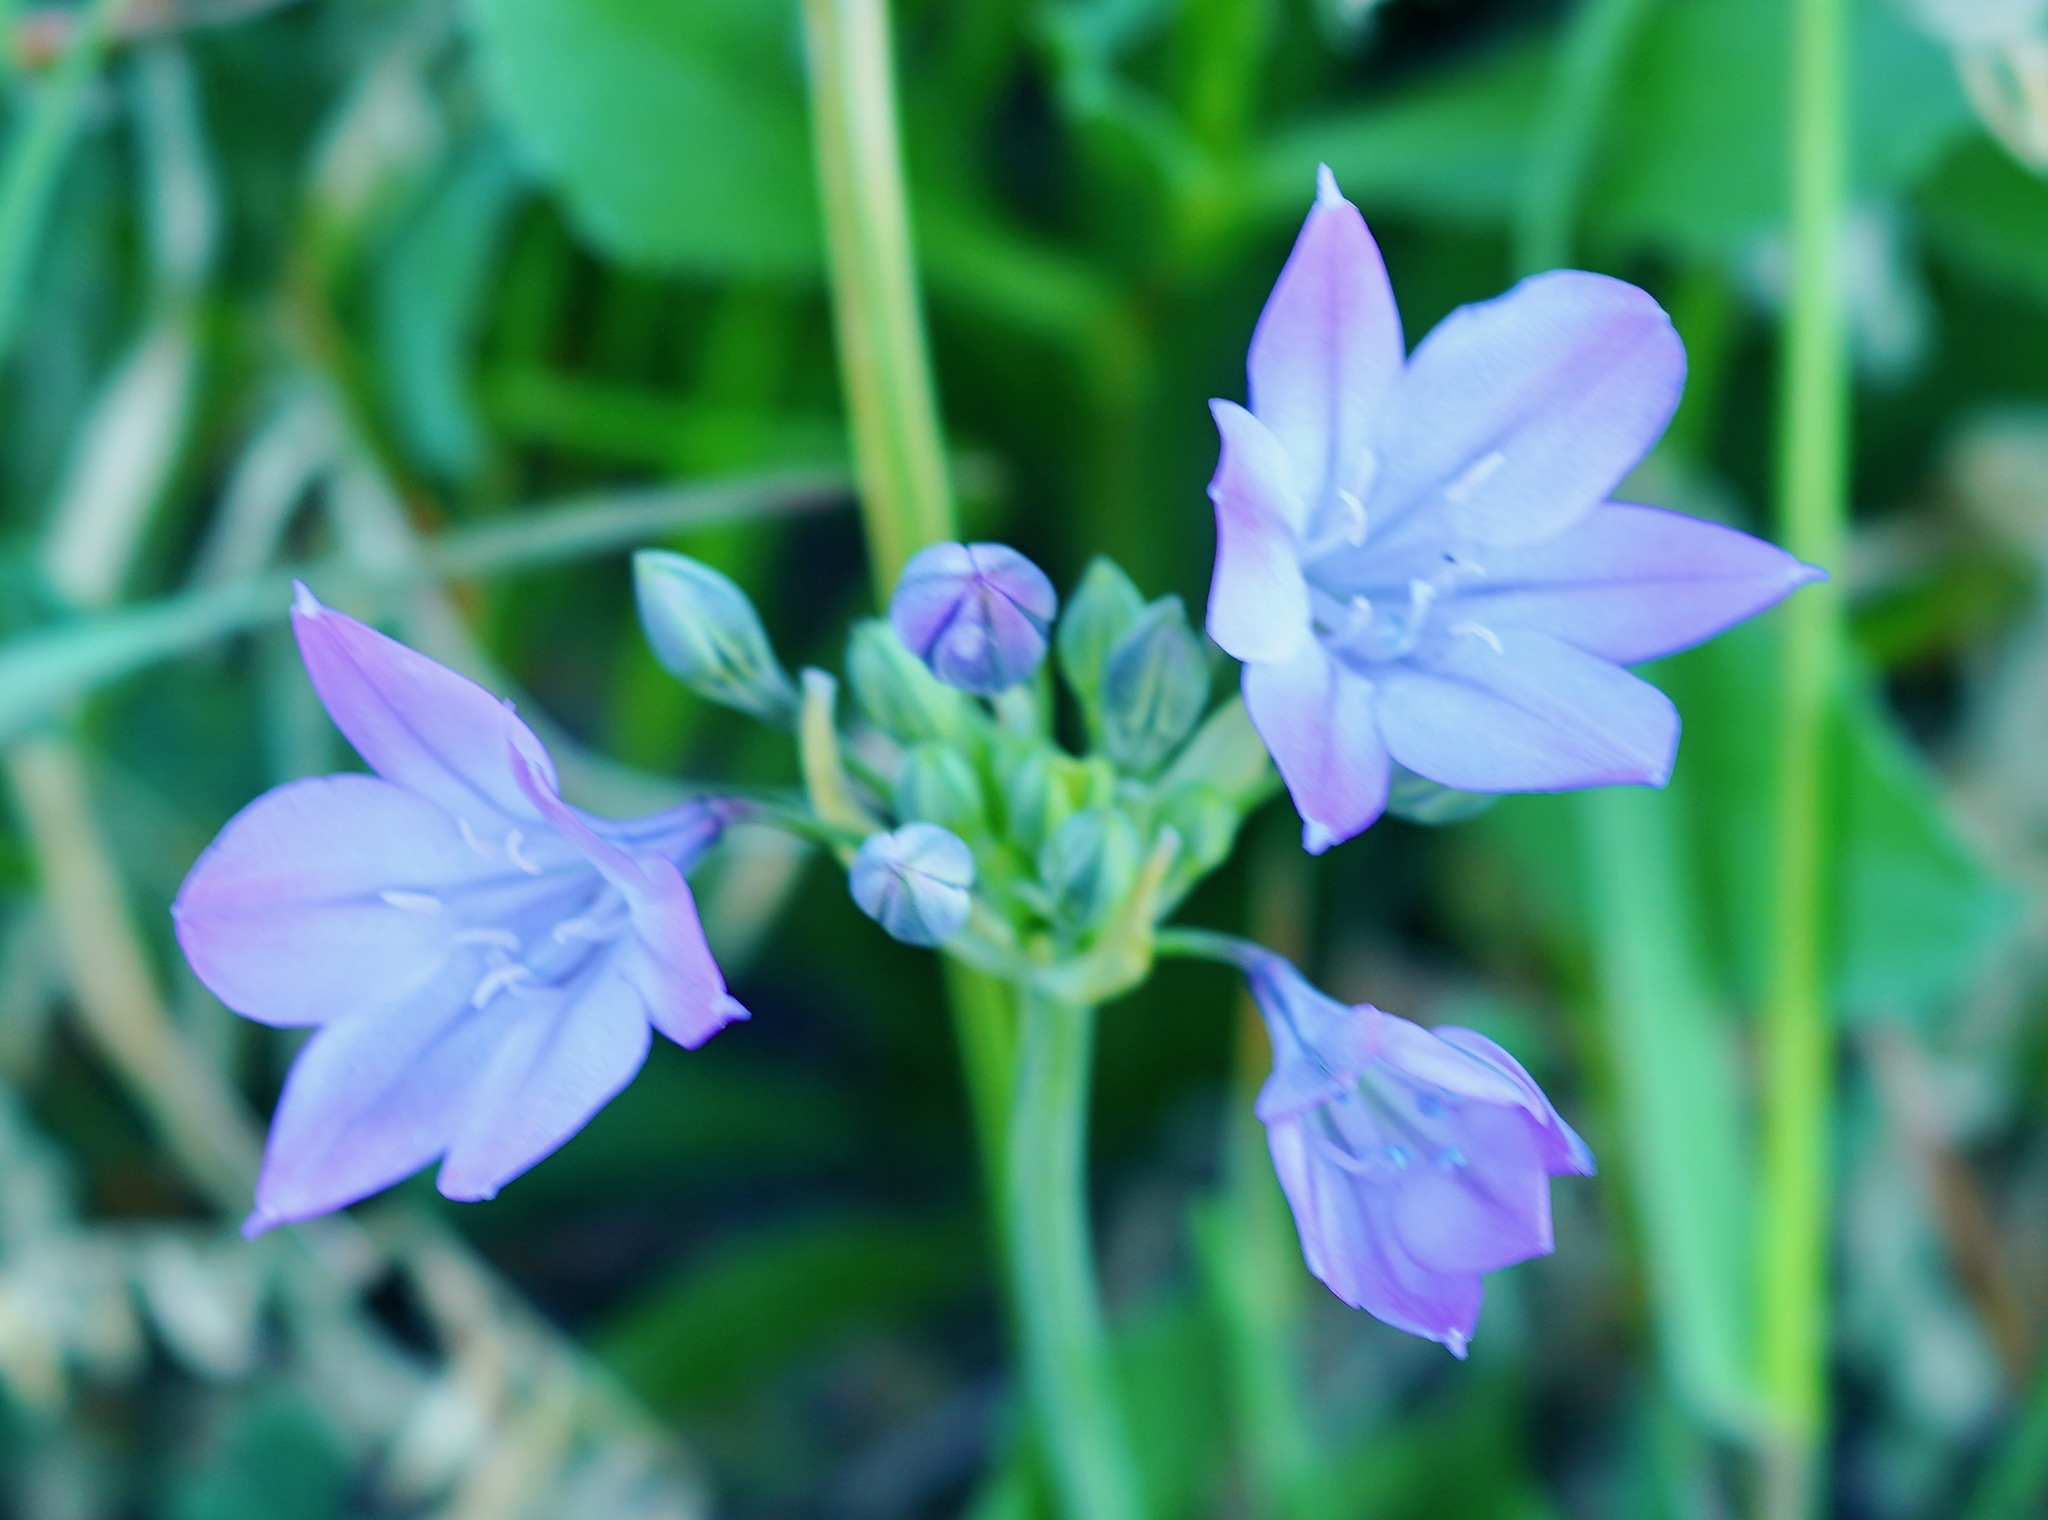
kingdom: Plantae
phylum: Tracheophyta
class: Liliopsida
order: Asparagales
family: Asparagaceae
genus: Triteleia
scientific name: Triteleia laxa
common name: Triplet-lily
